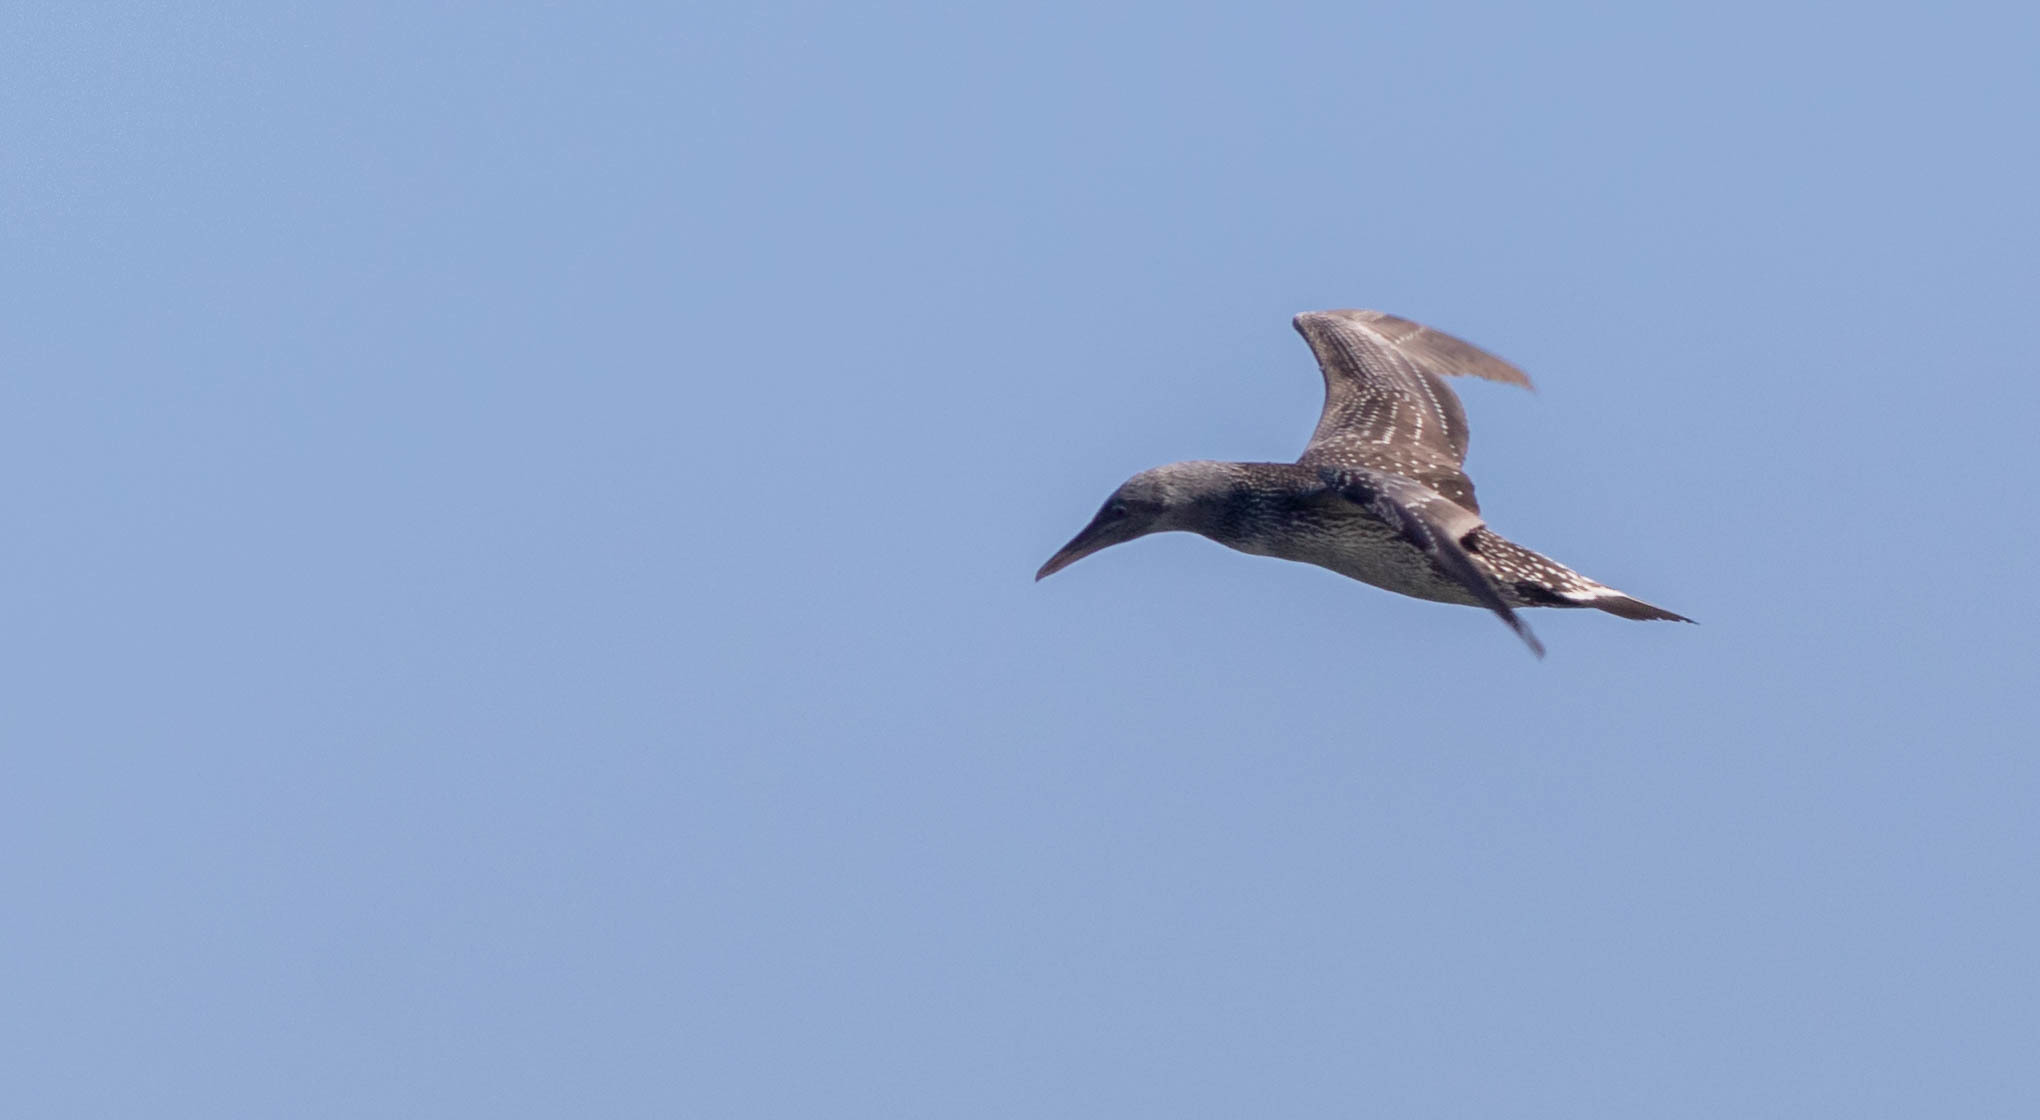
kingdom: Animalia
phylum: Chordata
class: Aves
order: Suliformes
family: Sulidae
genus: Morus
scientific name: Morus bassanus
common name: Northern gannet
